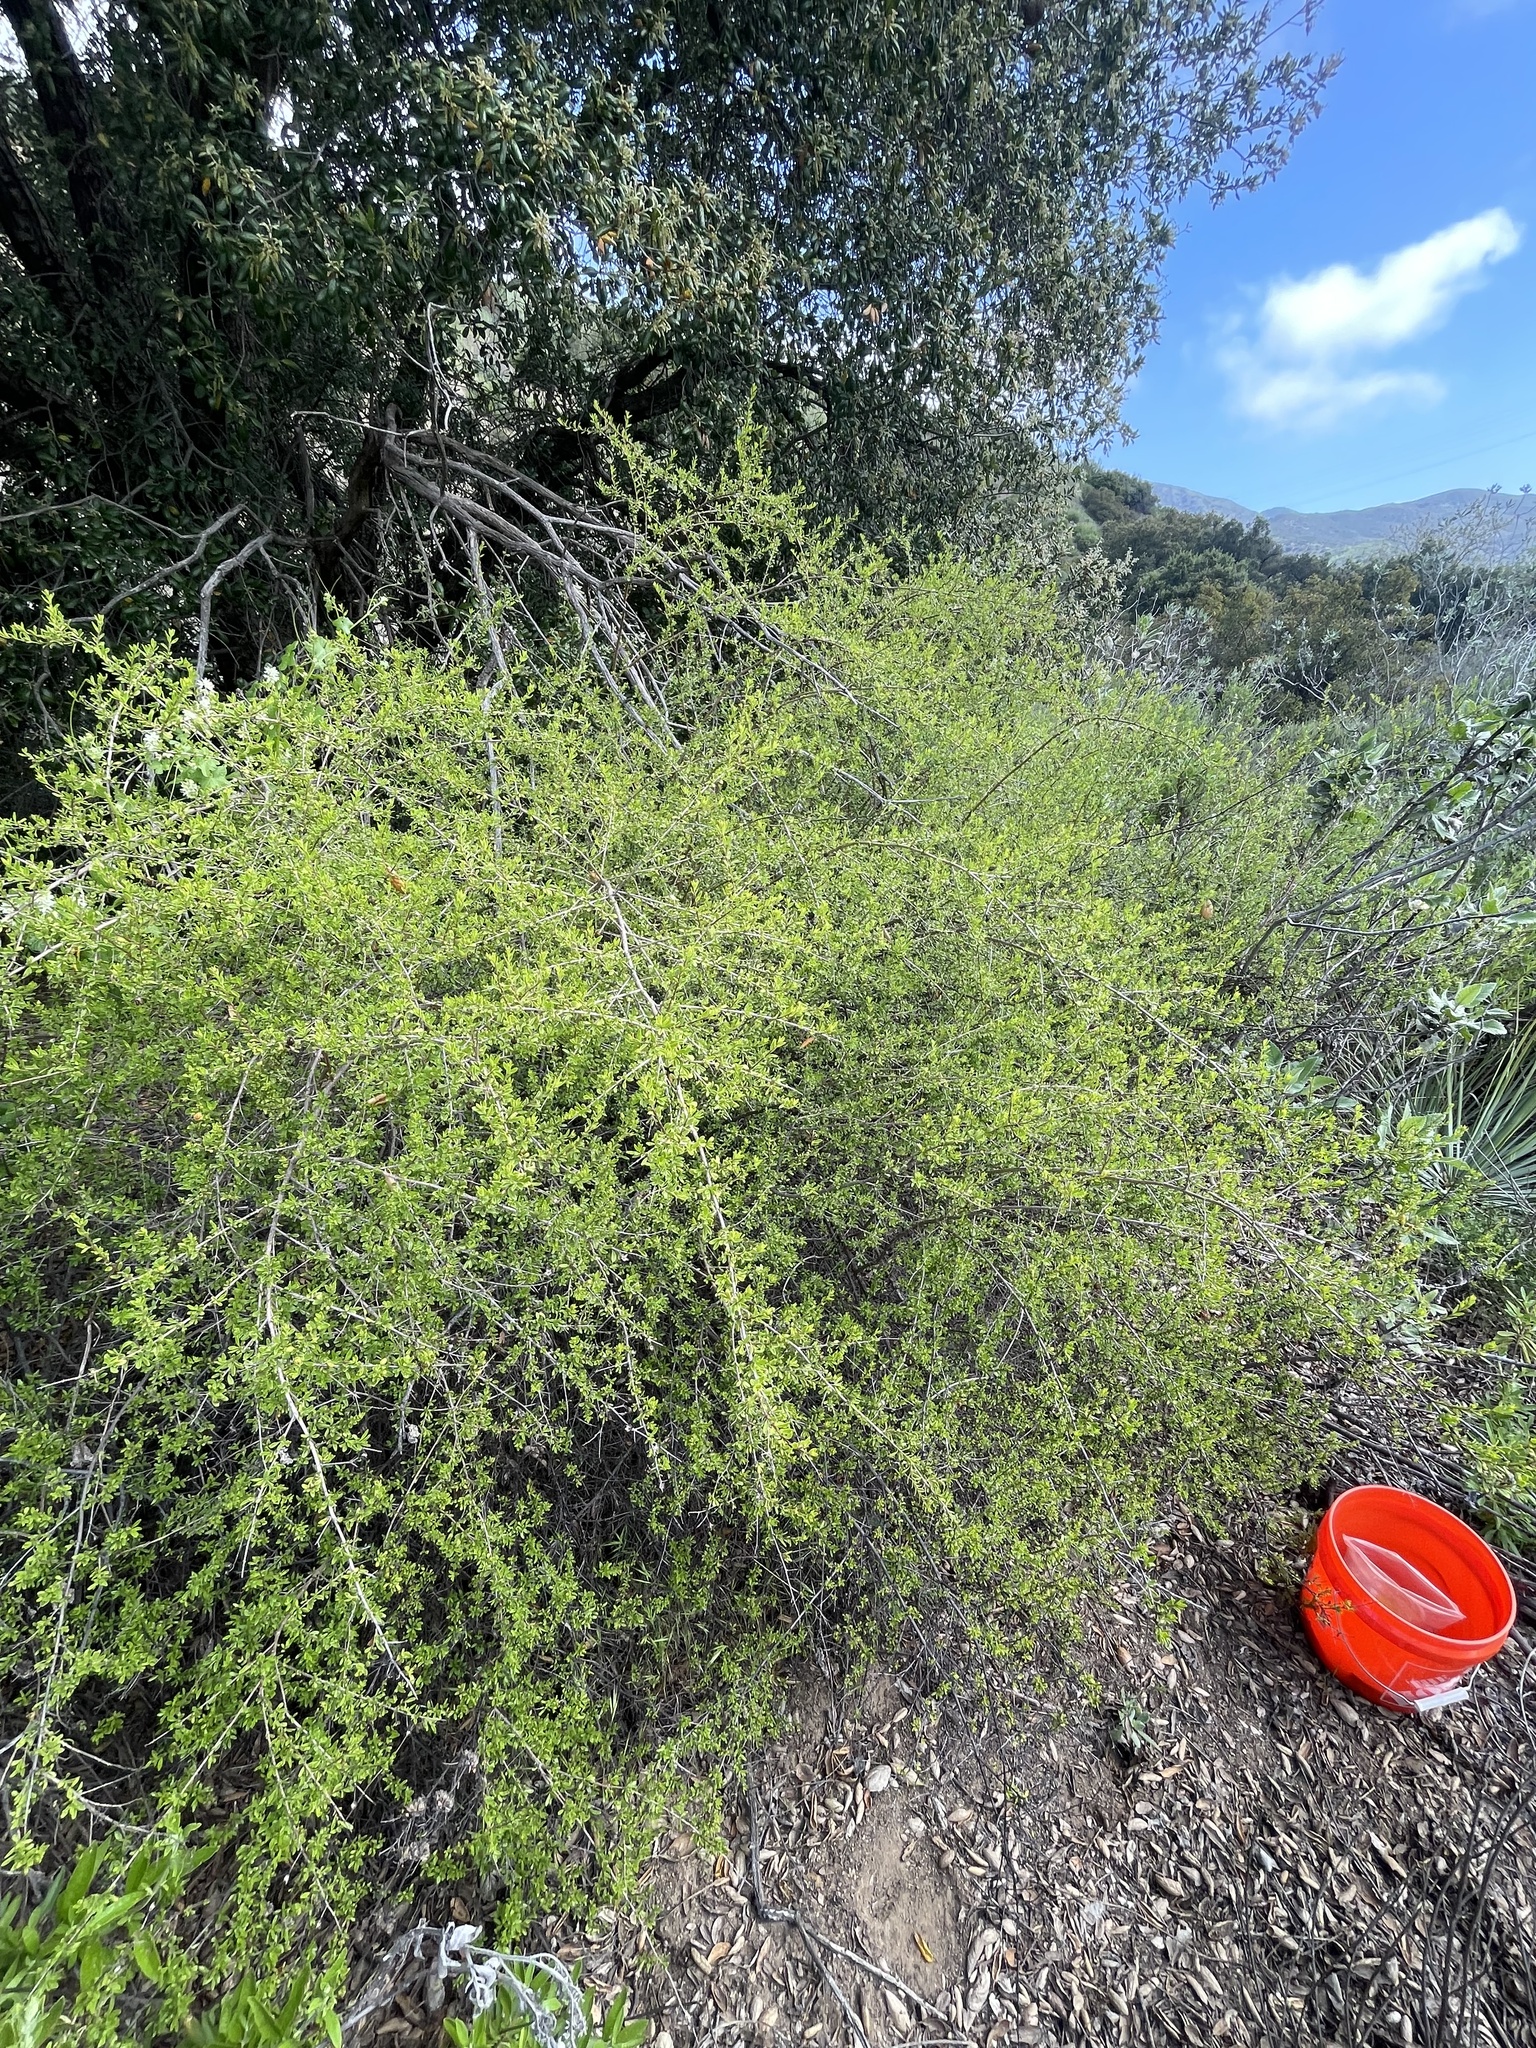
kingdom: Plantae
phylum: Tracheophyta
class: Magnoliopsida
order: Lamiales
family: Plantaginaceae
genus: Keckiella
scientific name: Keckiella antirrhinoides
